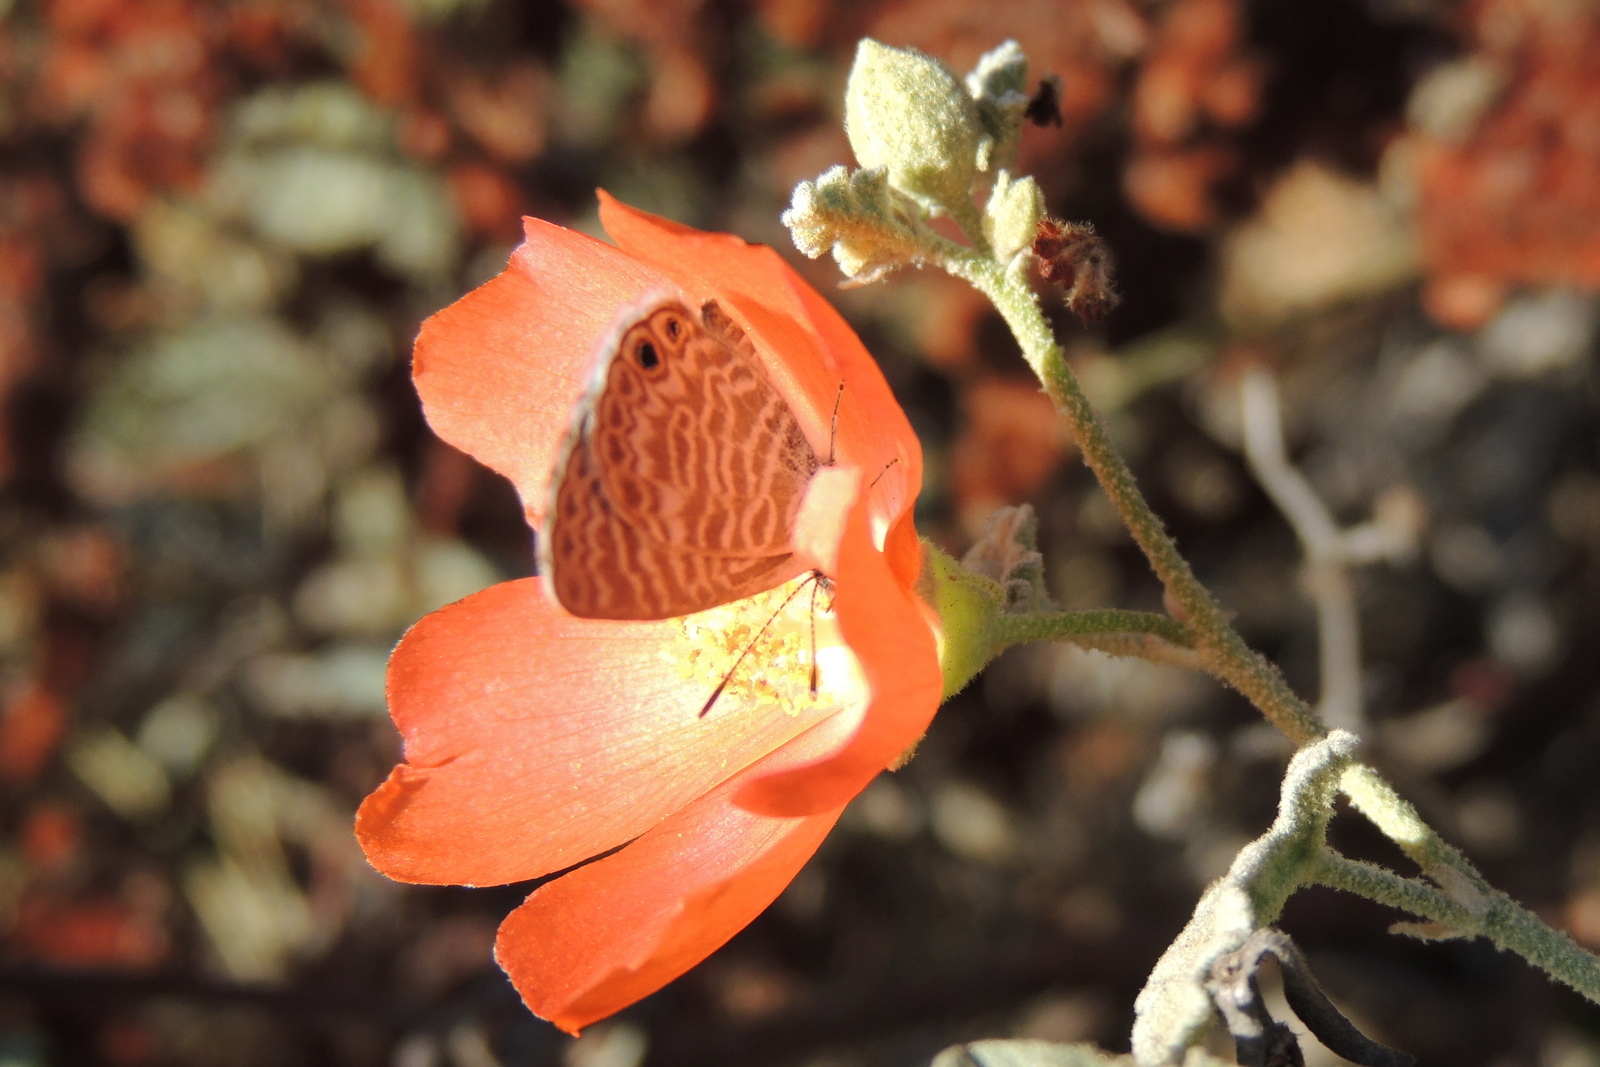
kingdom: Animalia
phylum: Arthropoda
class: Insecta
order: Lepidoptera
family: Lycaenidae
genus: Leptotes
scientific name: Leptotes marina
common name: Marine blue
